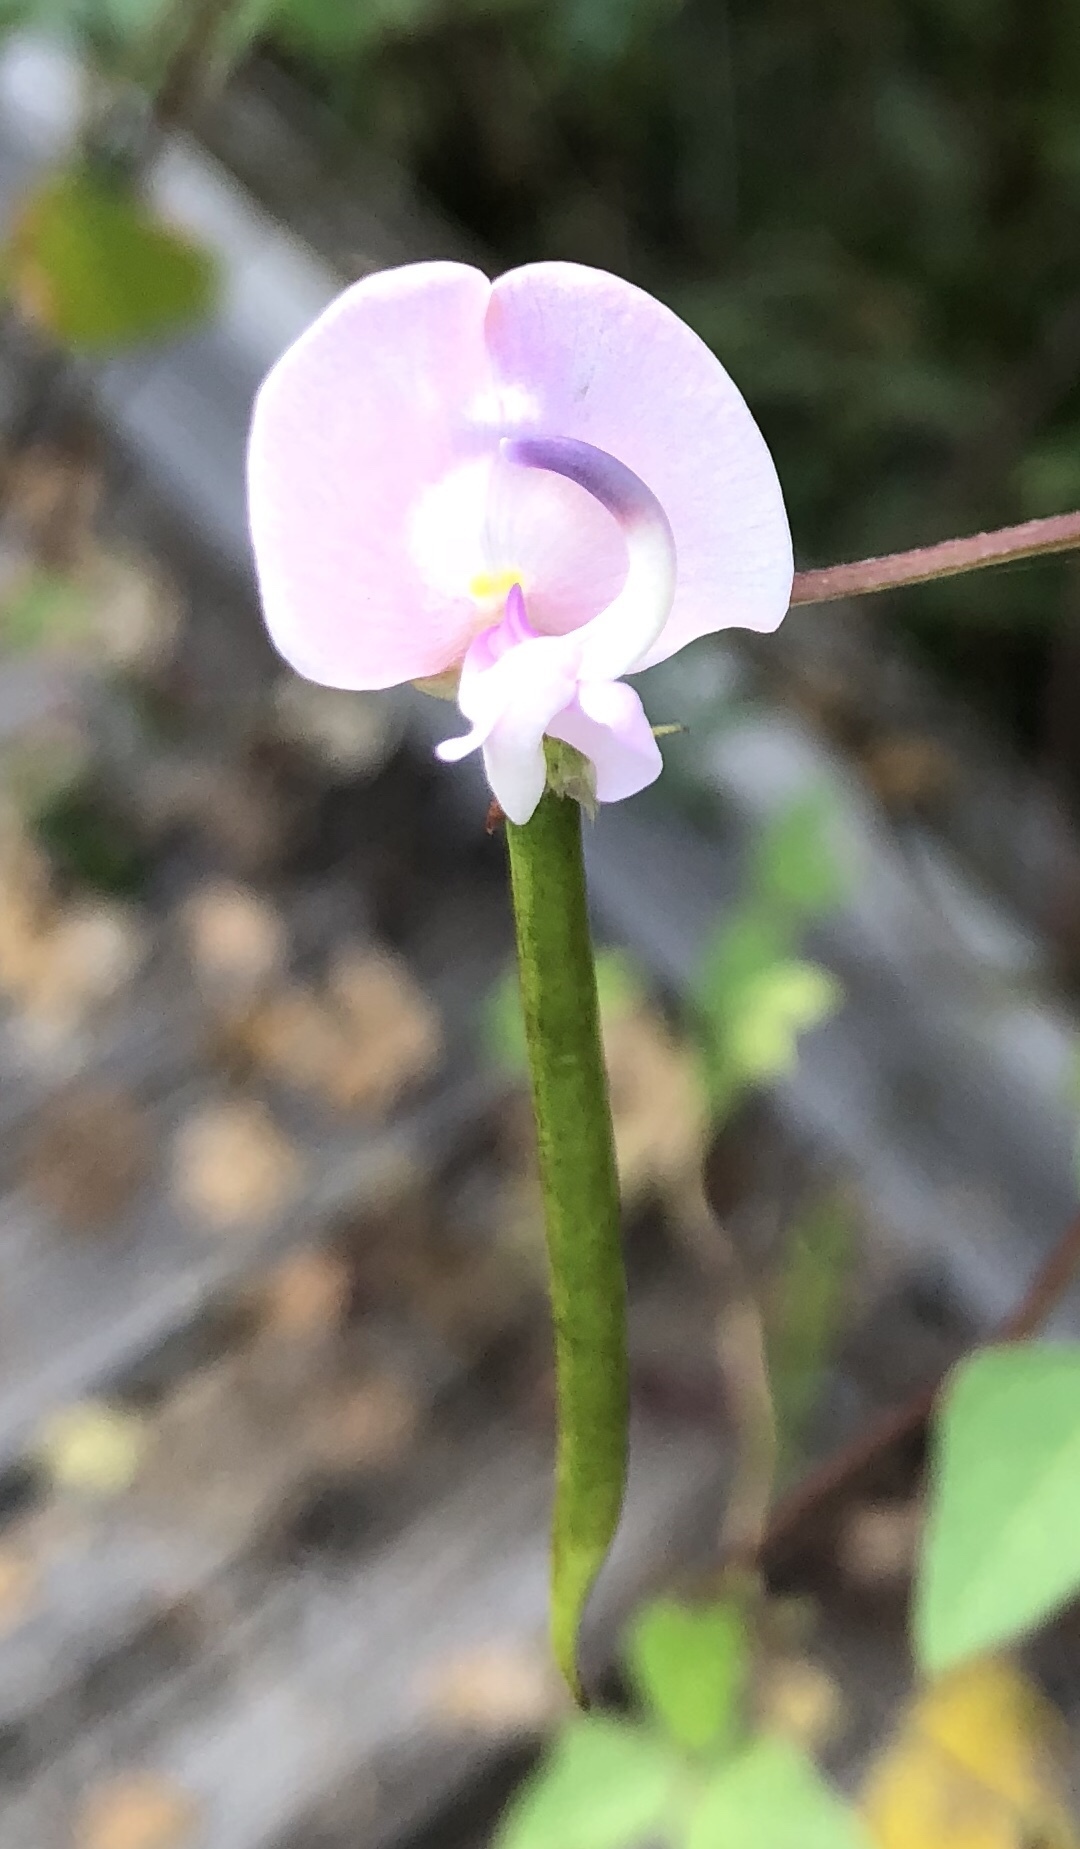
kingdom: Plantae
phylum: Tracheophyta
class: Magnoliopsida
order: Fabales
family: Fabaceae
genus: Strophostyles
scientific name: Strophostyles helvola
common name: Trailing wild bean
